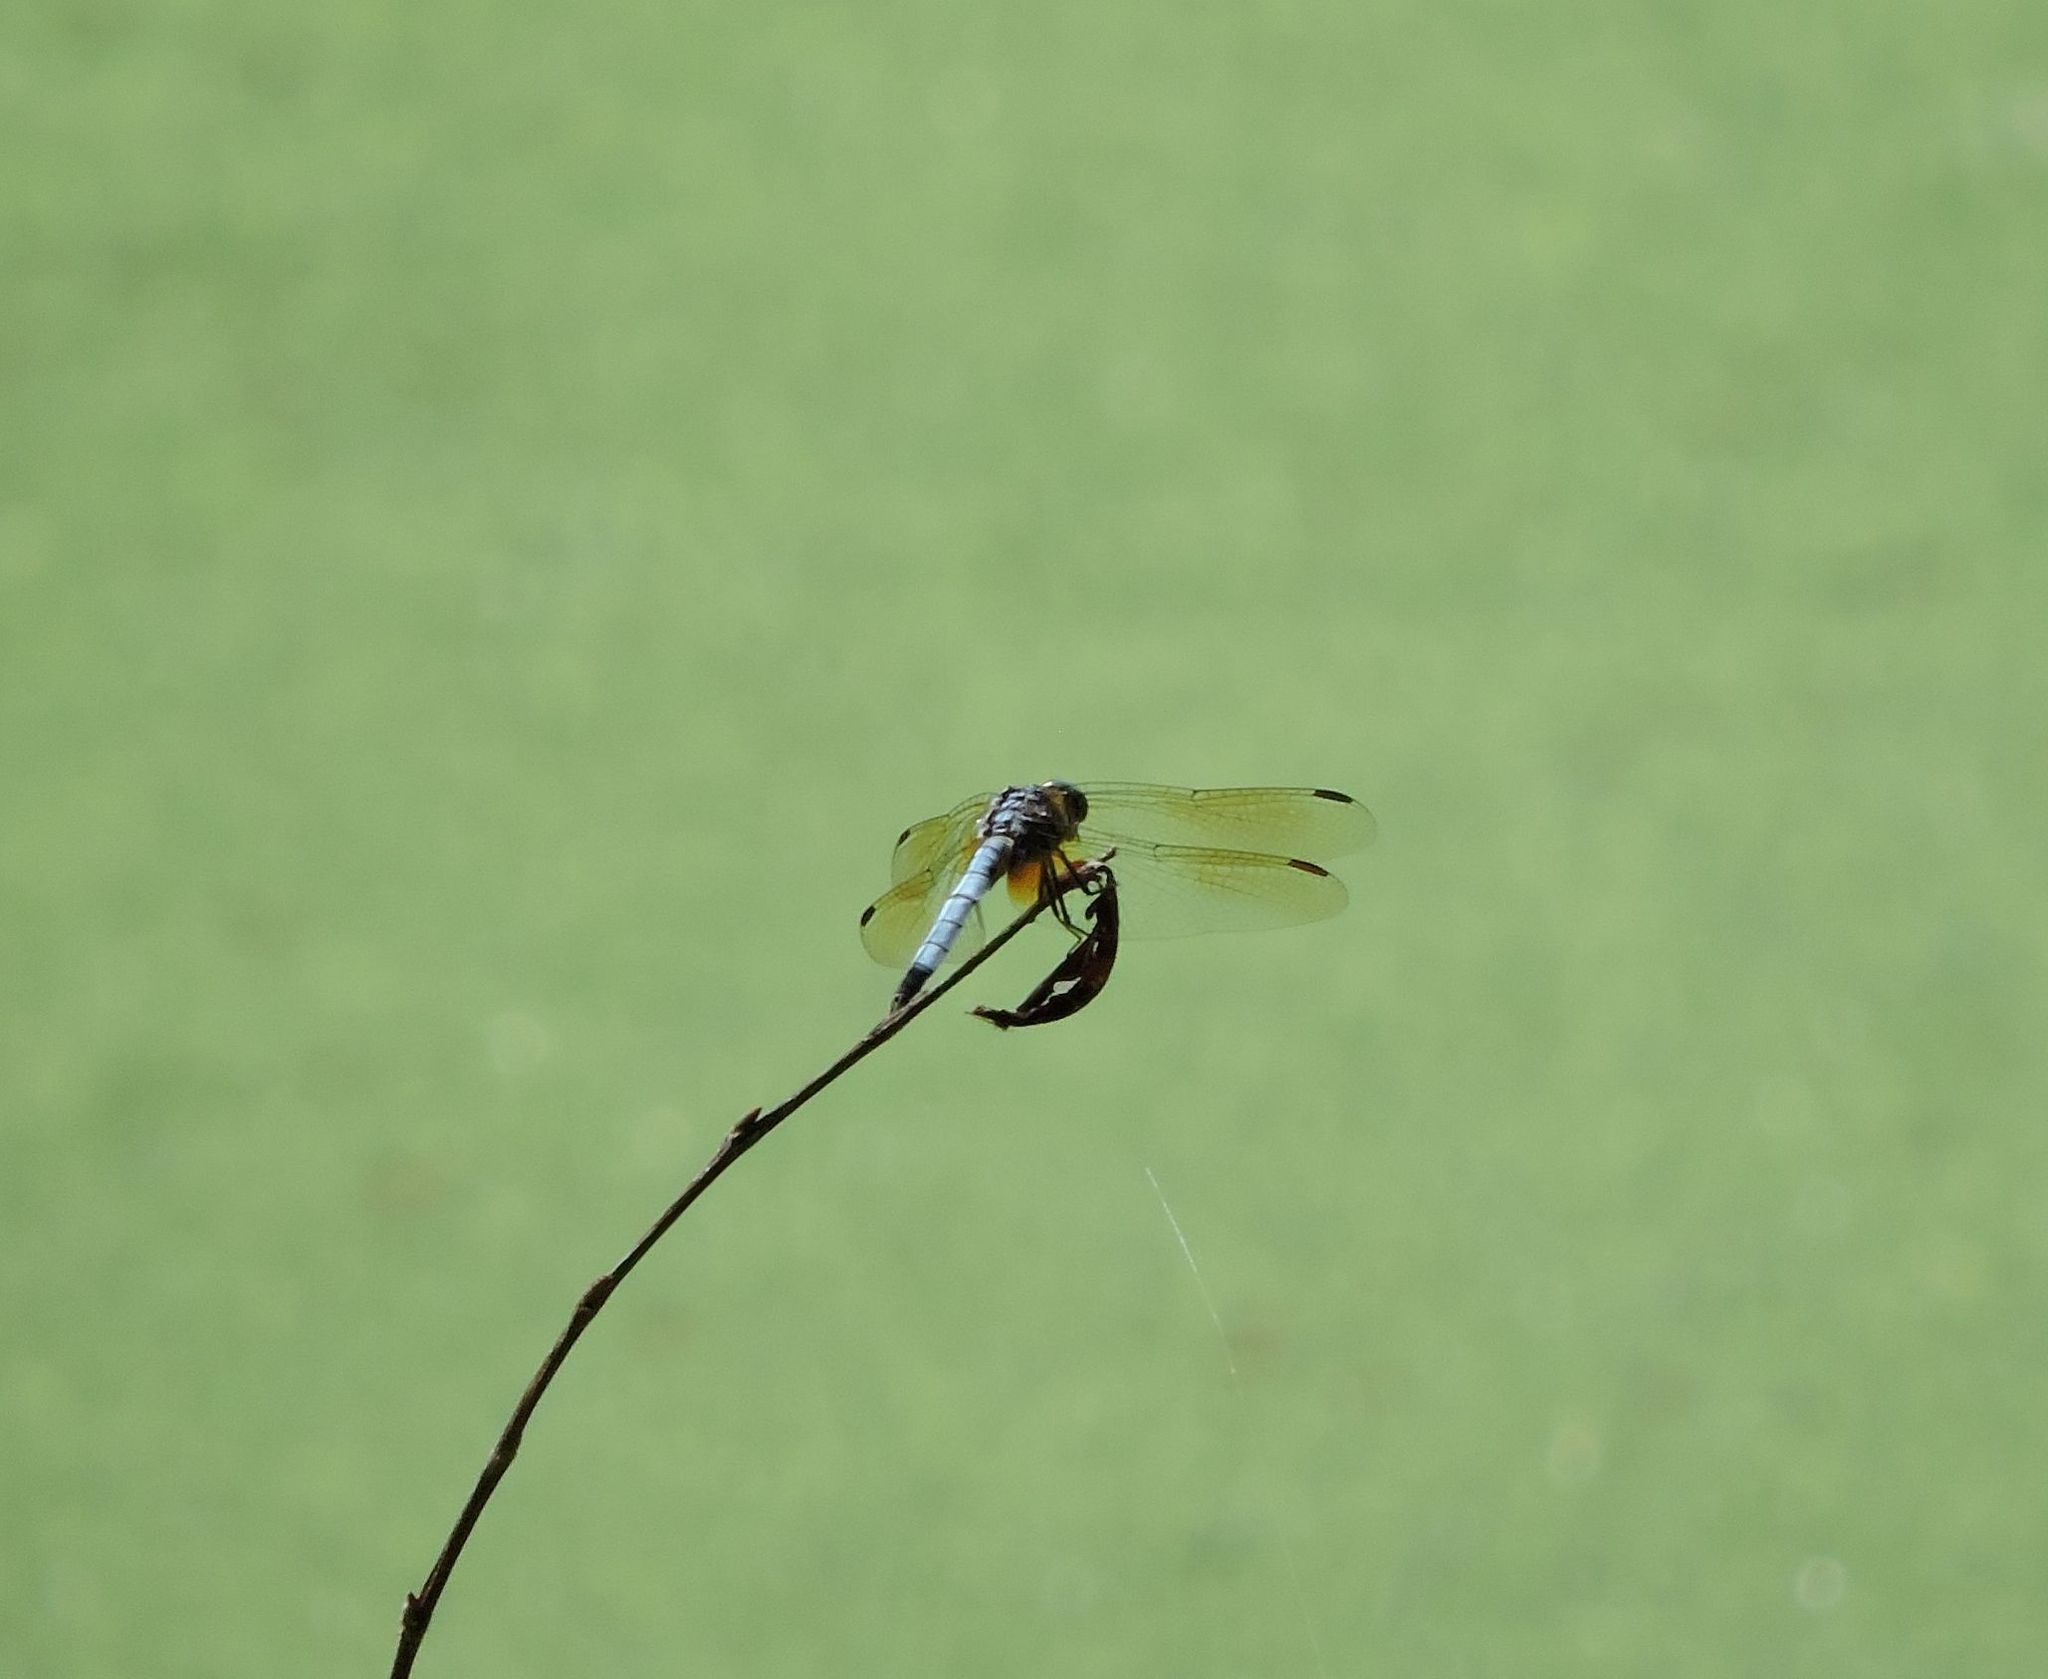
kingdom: Animalia
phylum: Arthropoda
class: Insecta
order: Odonata
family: Libellulidae
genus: Pachydiplax
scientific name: Pachydiplax longipennis
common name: Blue dasher
